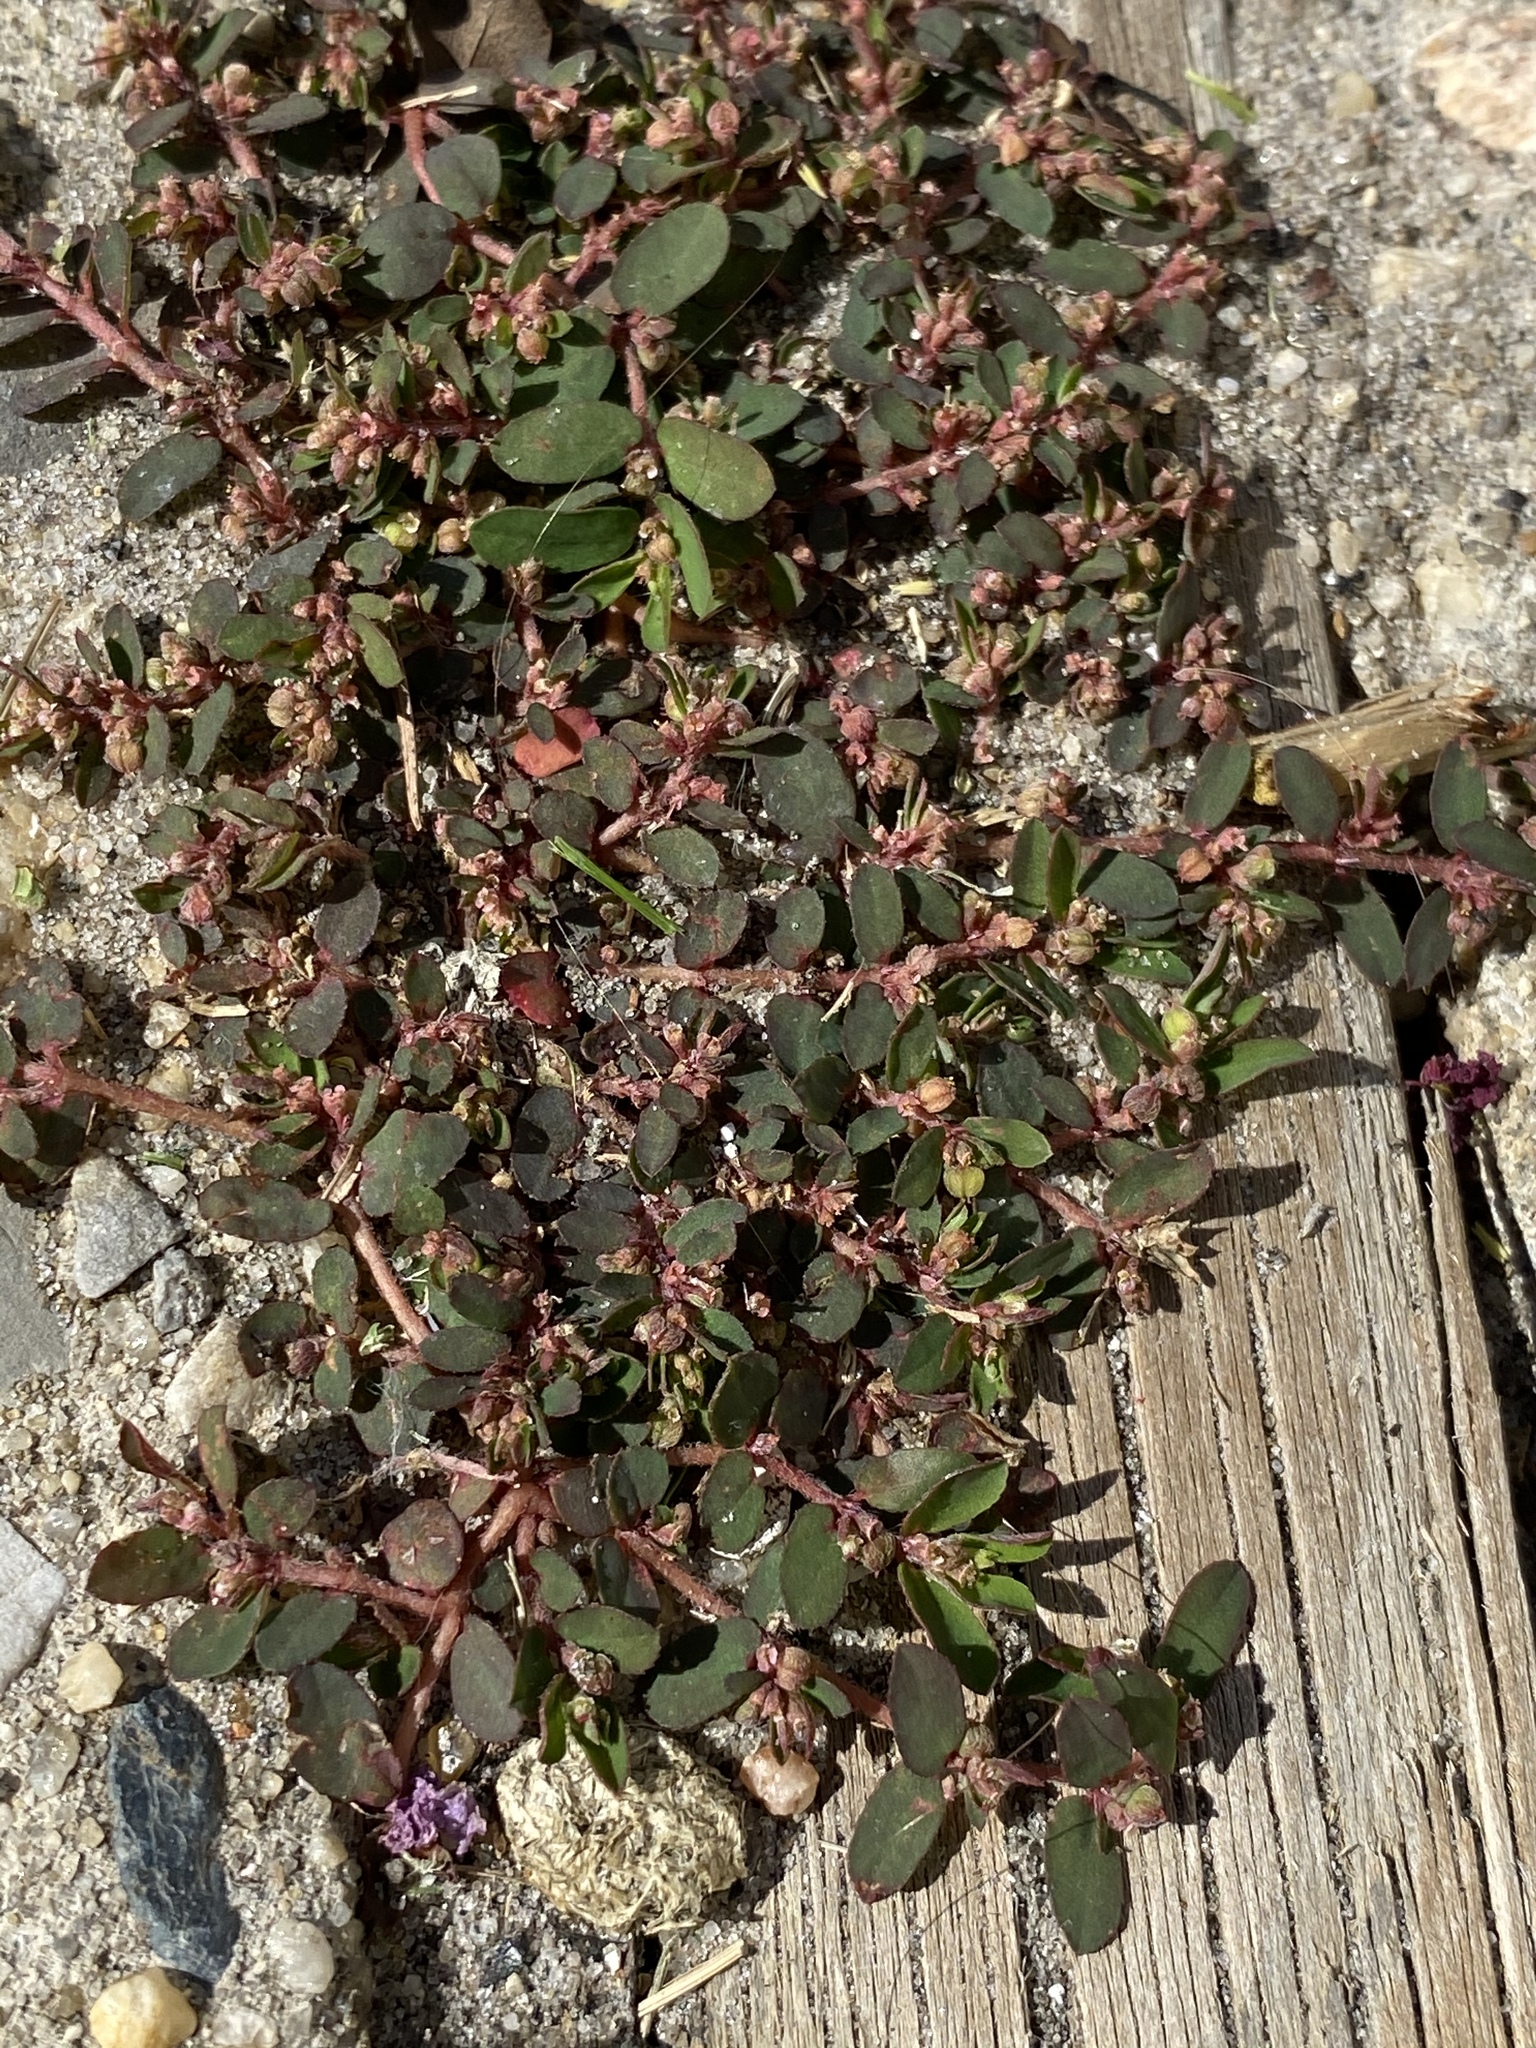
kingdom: Plantae
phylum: Tracheophyta
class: Magnoliopsida
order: Malpighiales
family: Euphorbiaceae
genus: Euphorbia
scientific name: Euphorbia maculata
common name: Spotted spurge
